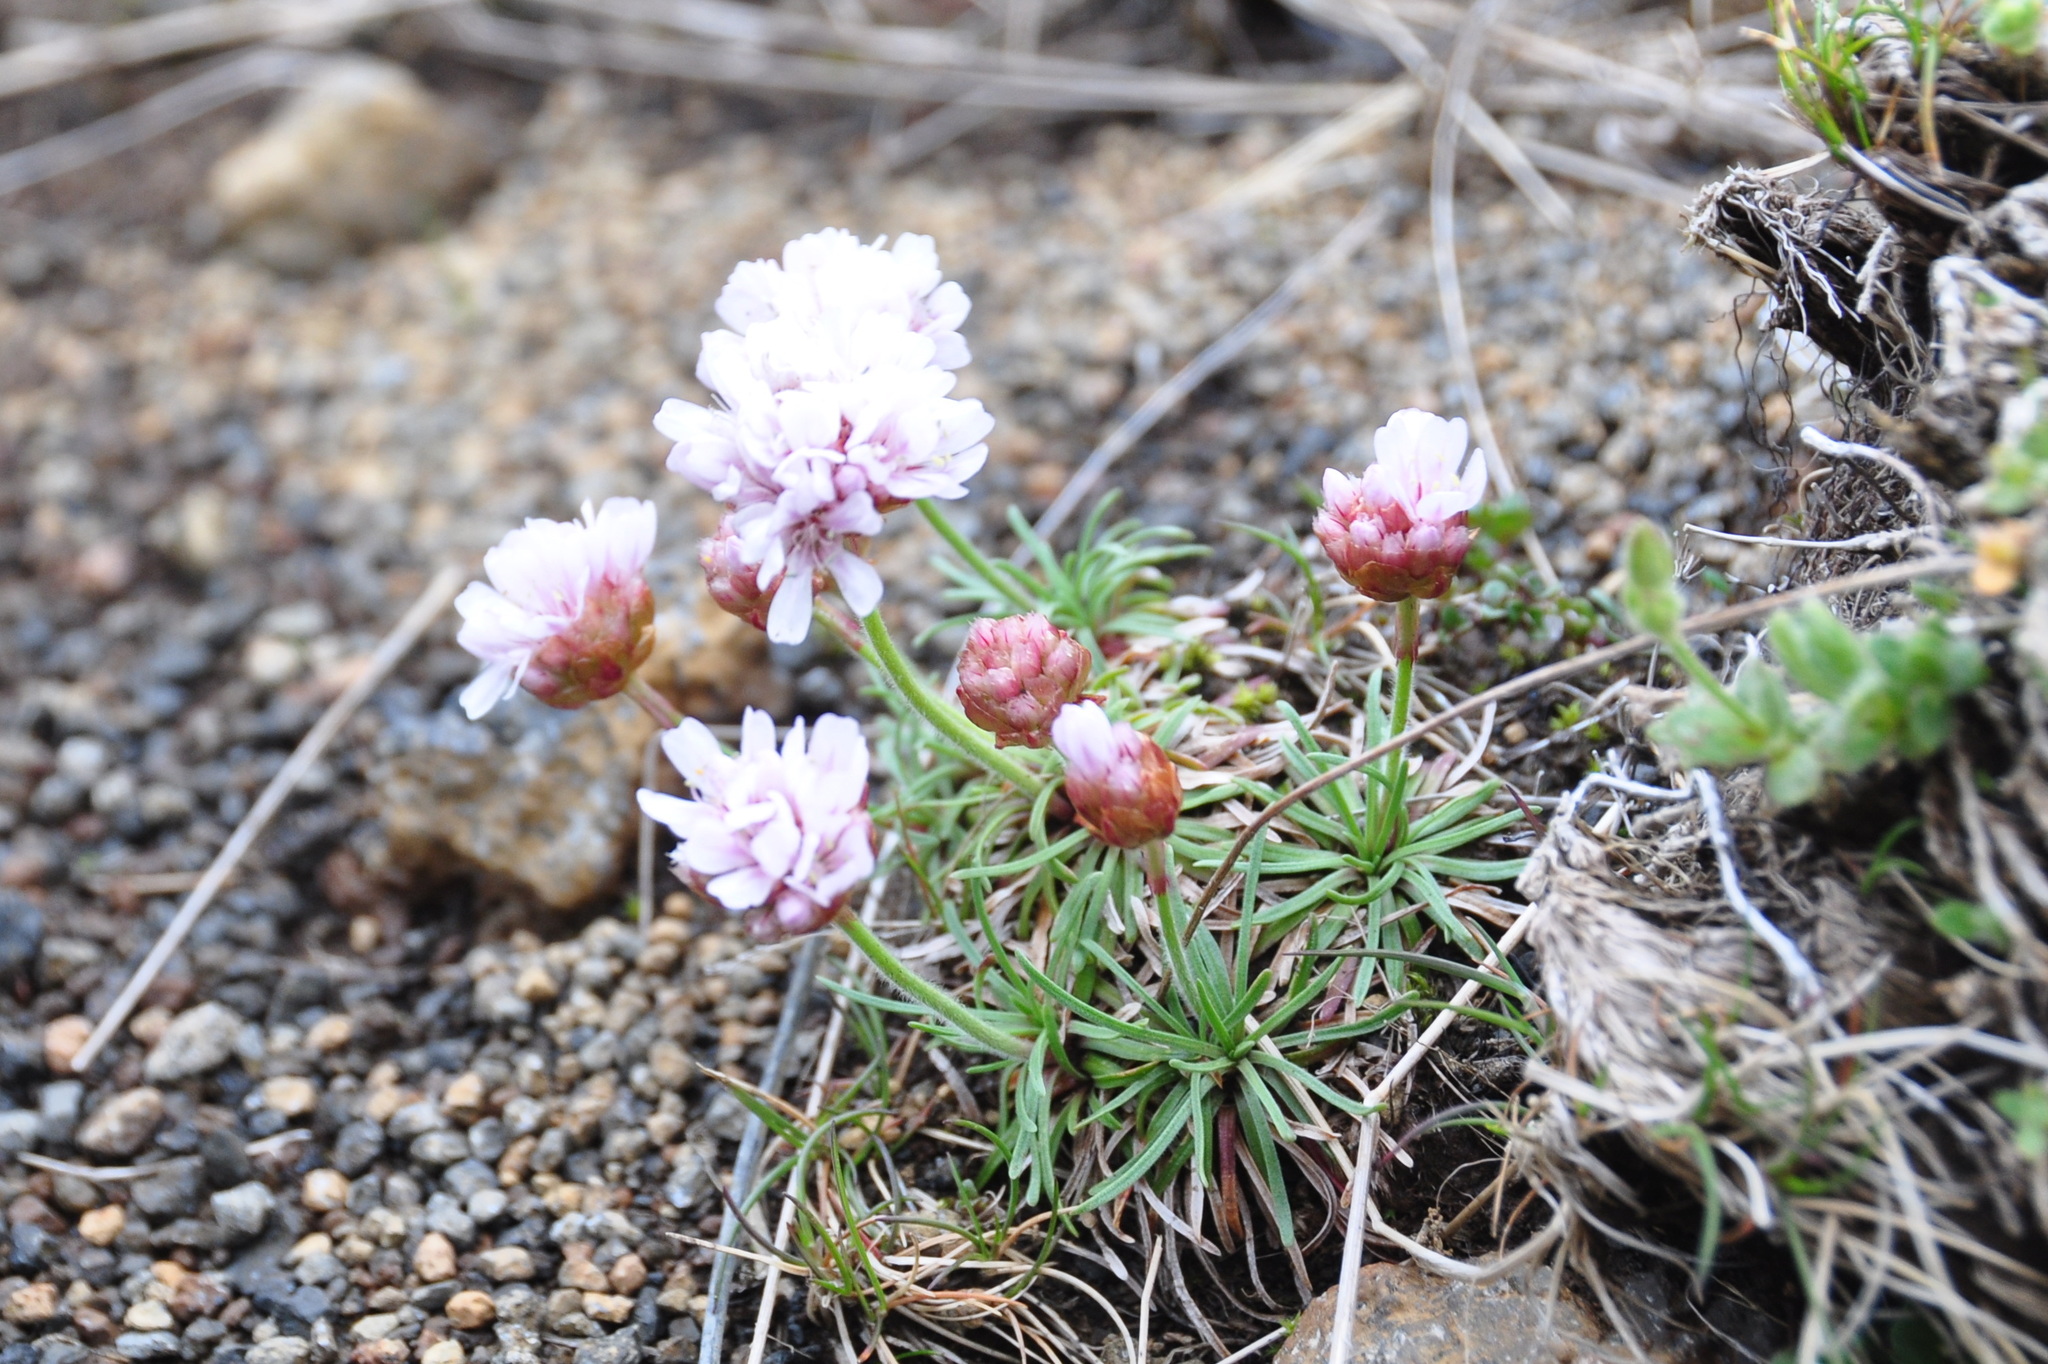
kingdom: Plantae
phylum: Tracheophyta
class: Magnoliopsida
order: Caryophyllales
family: Plumbaginaceae
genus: Armeria
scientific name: Armeria maritima
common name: Thrift
